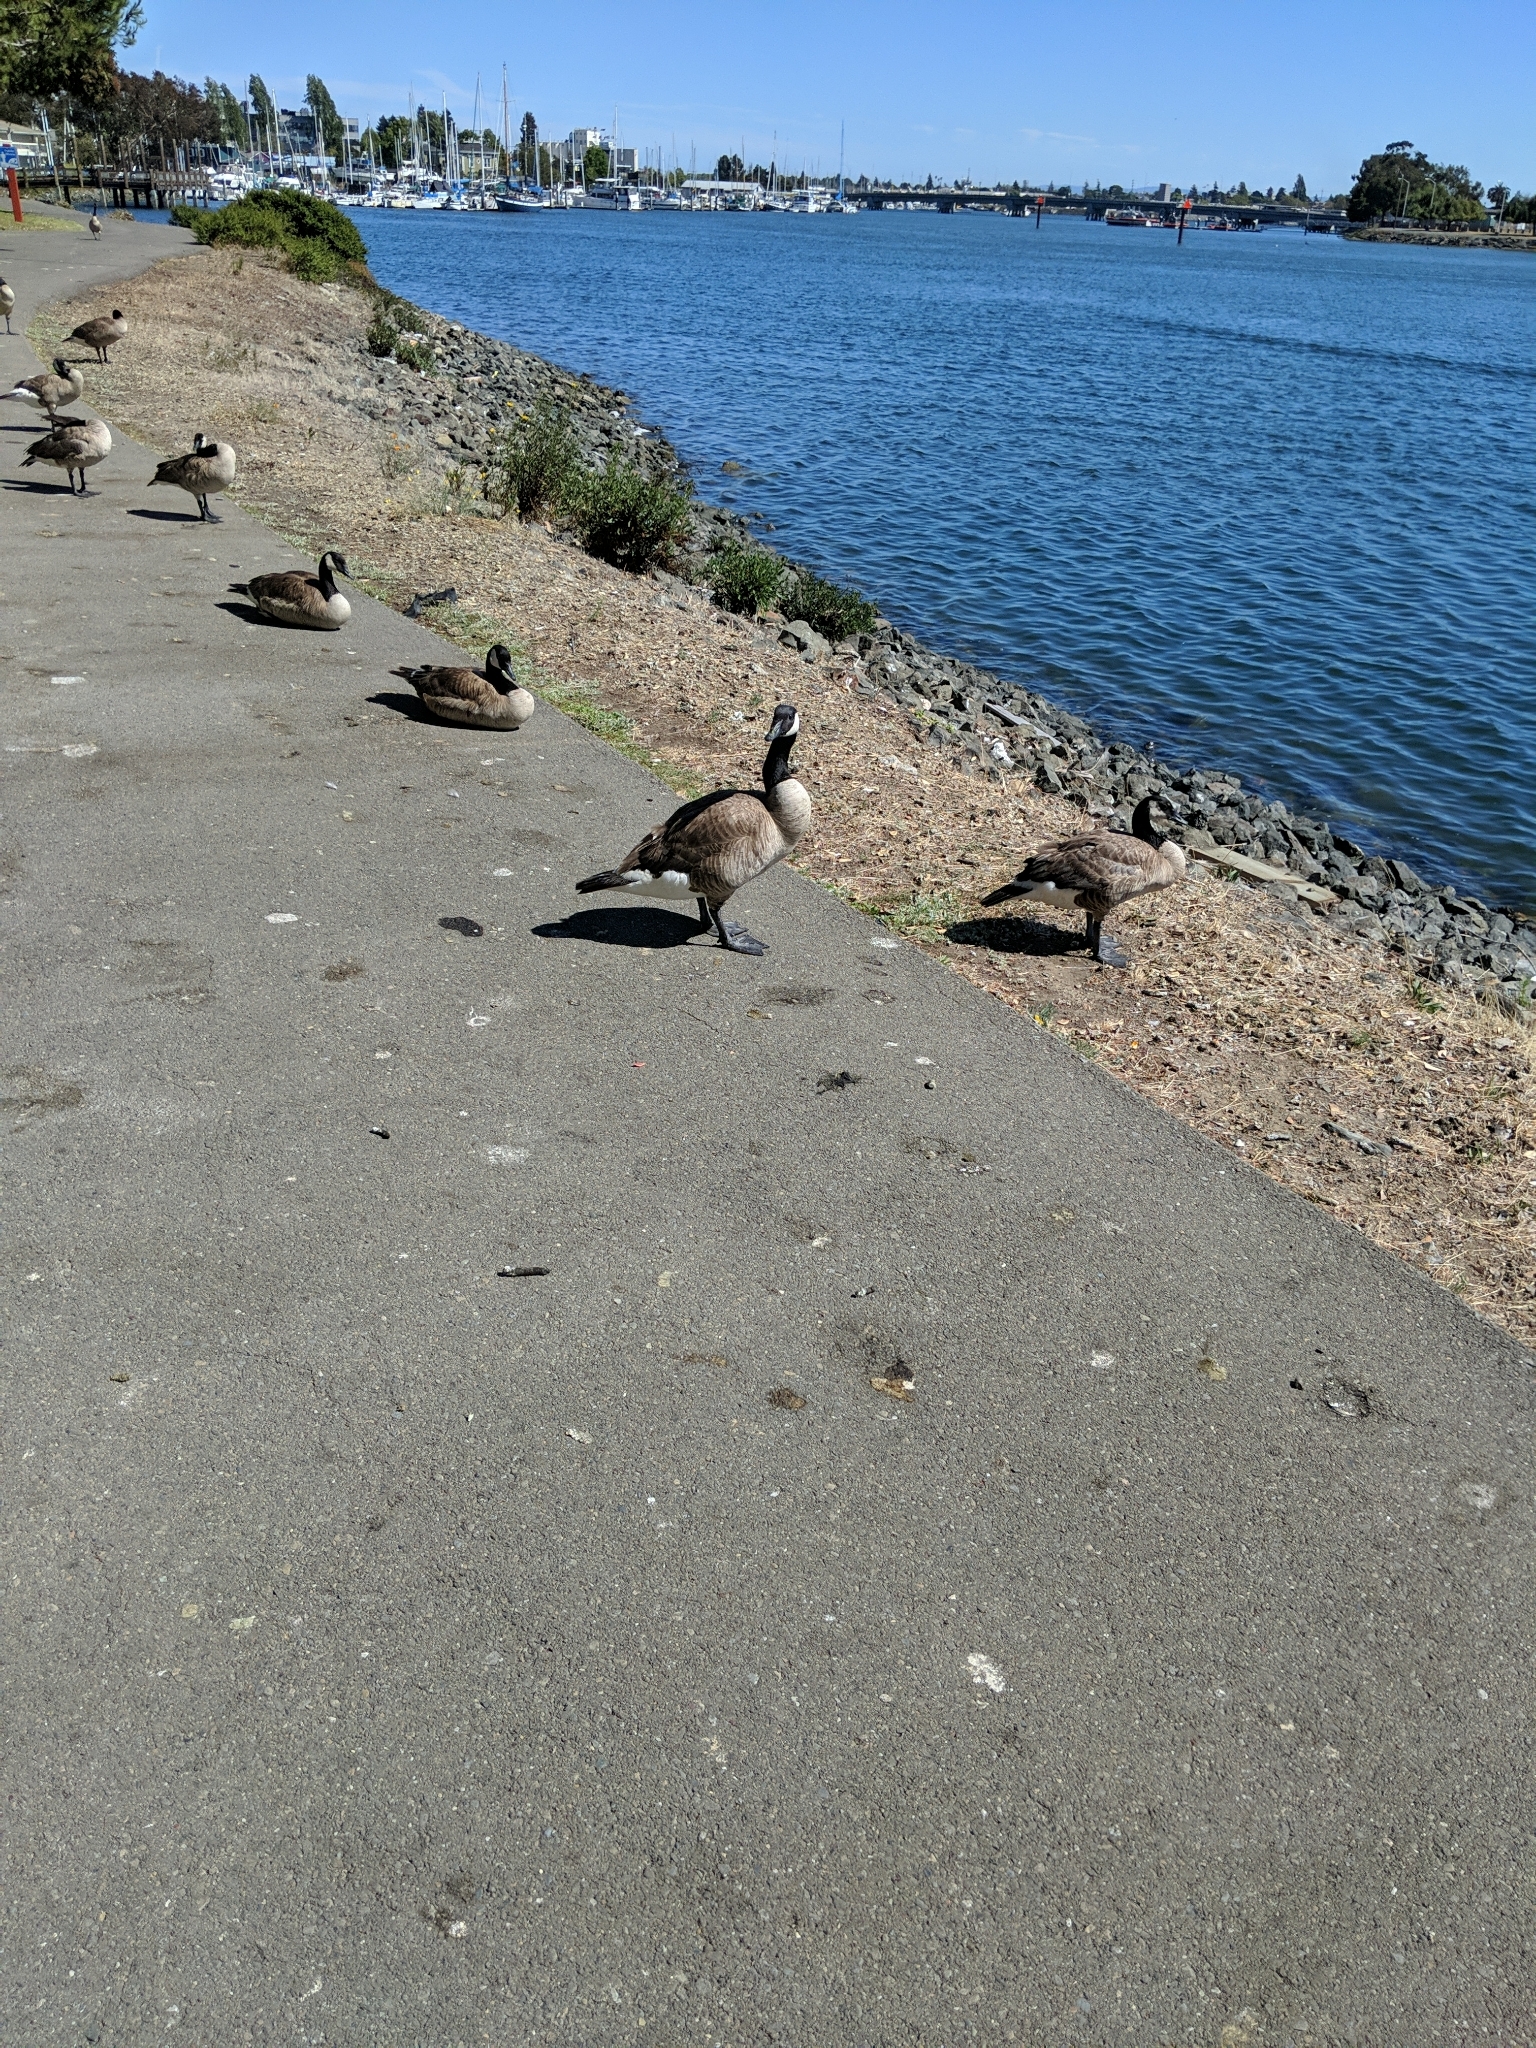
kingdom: Animalia
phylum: Chordata
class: Aves
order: Anseriformes
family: Anatidae
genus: Branta
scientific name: Branta canadensis
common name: Canada goose
